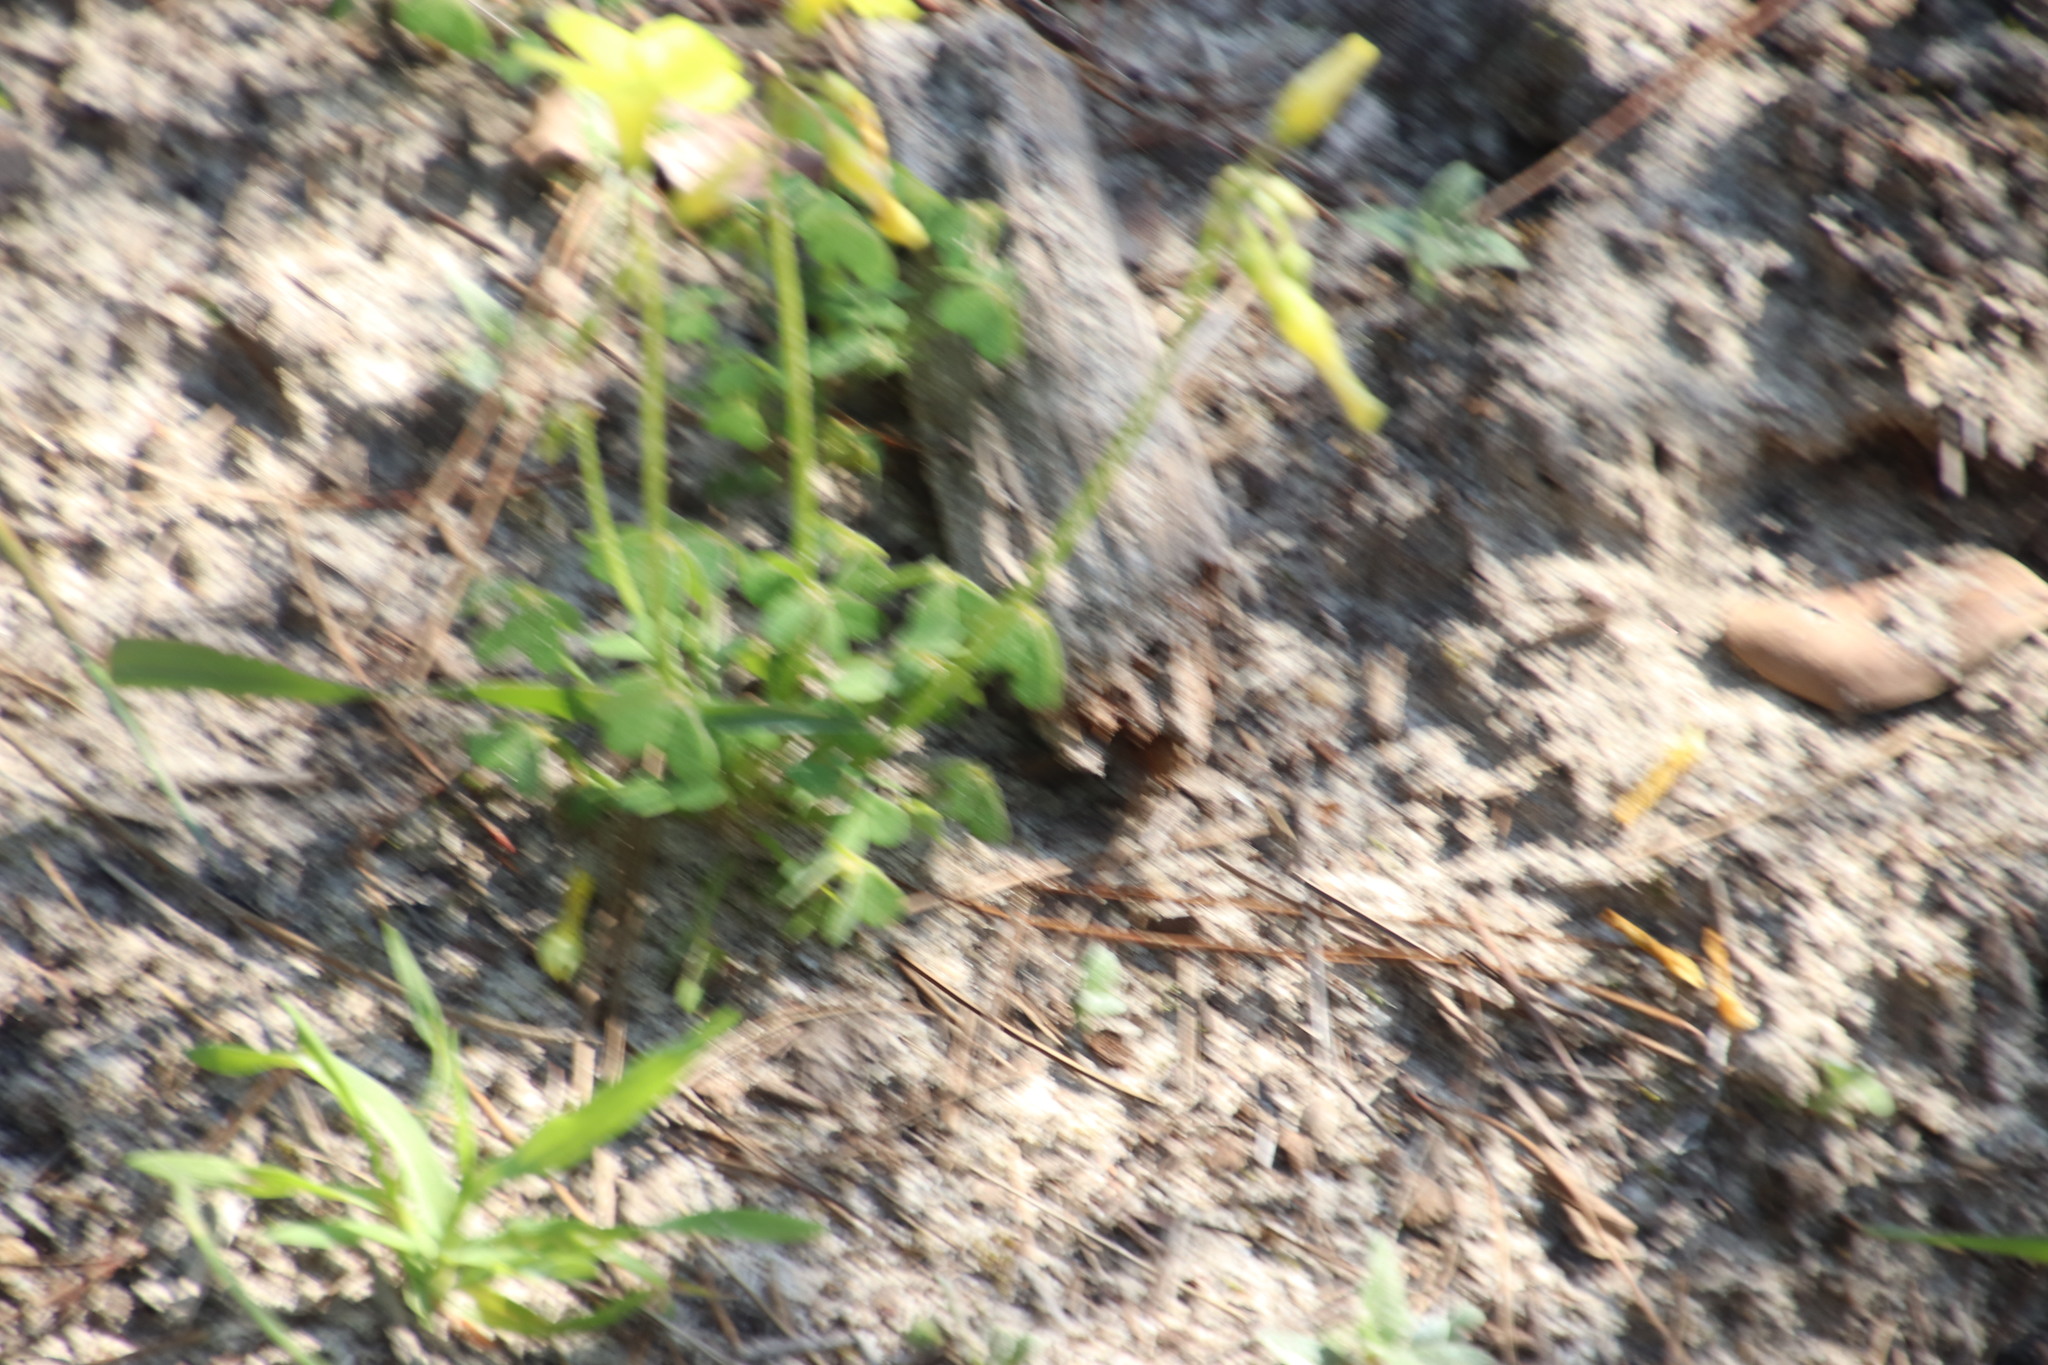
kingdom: Plantae
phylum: Tracheophyta
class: Magnoliopsida
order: Oxalidales
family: Oxalidaceae
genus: Oxalis
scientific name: Oxalis pes-caprae
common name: Bermuda-buttercup
